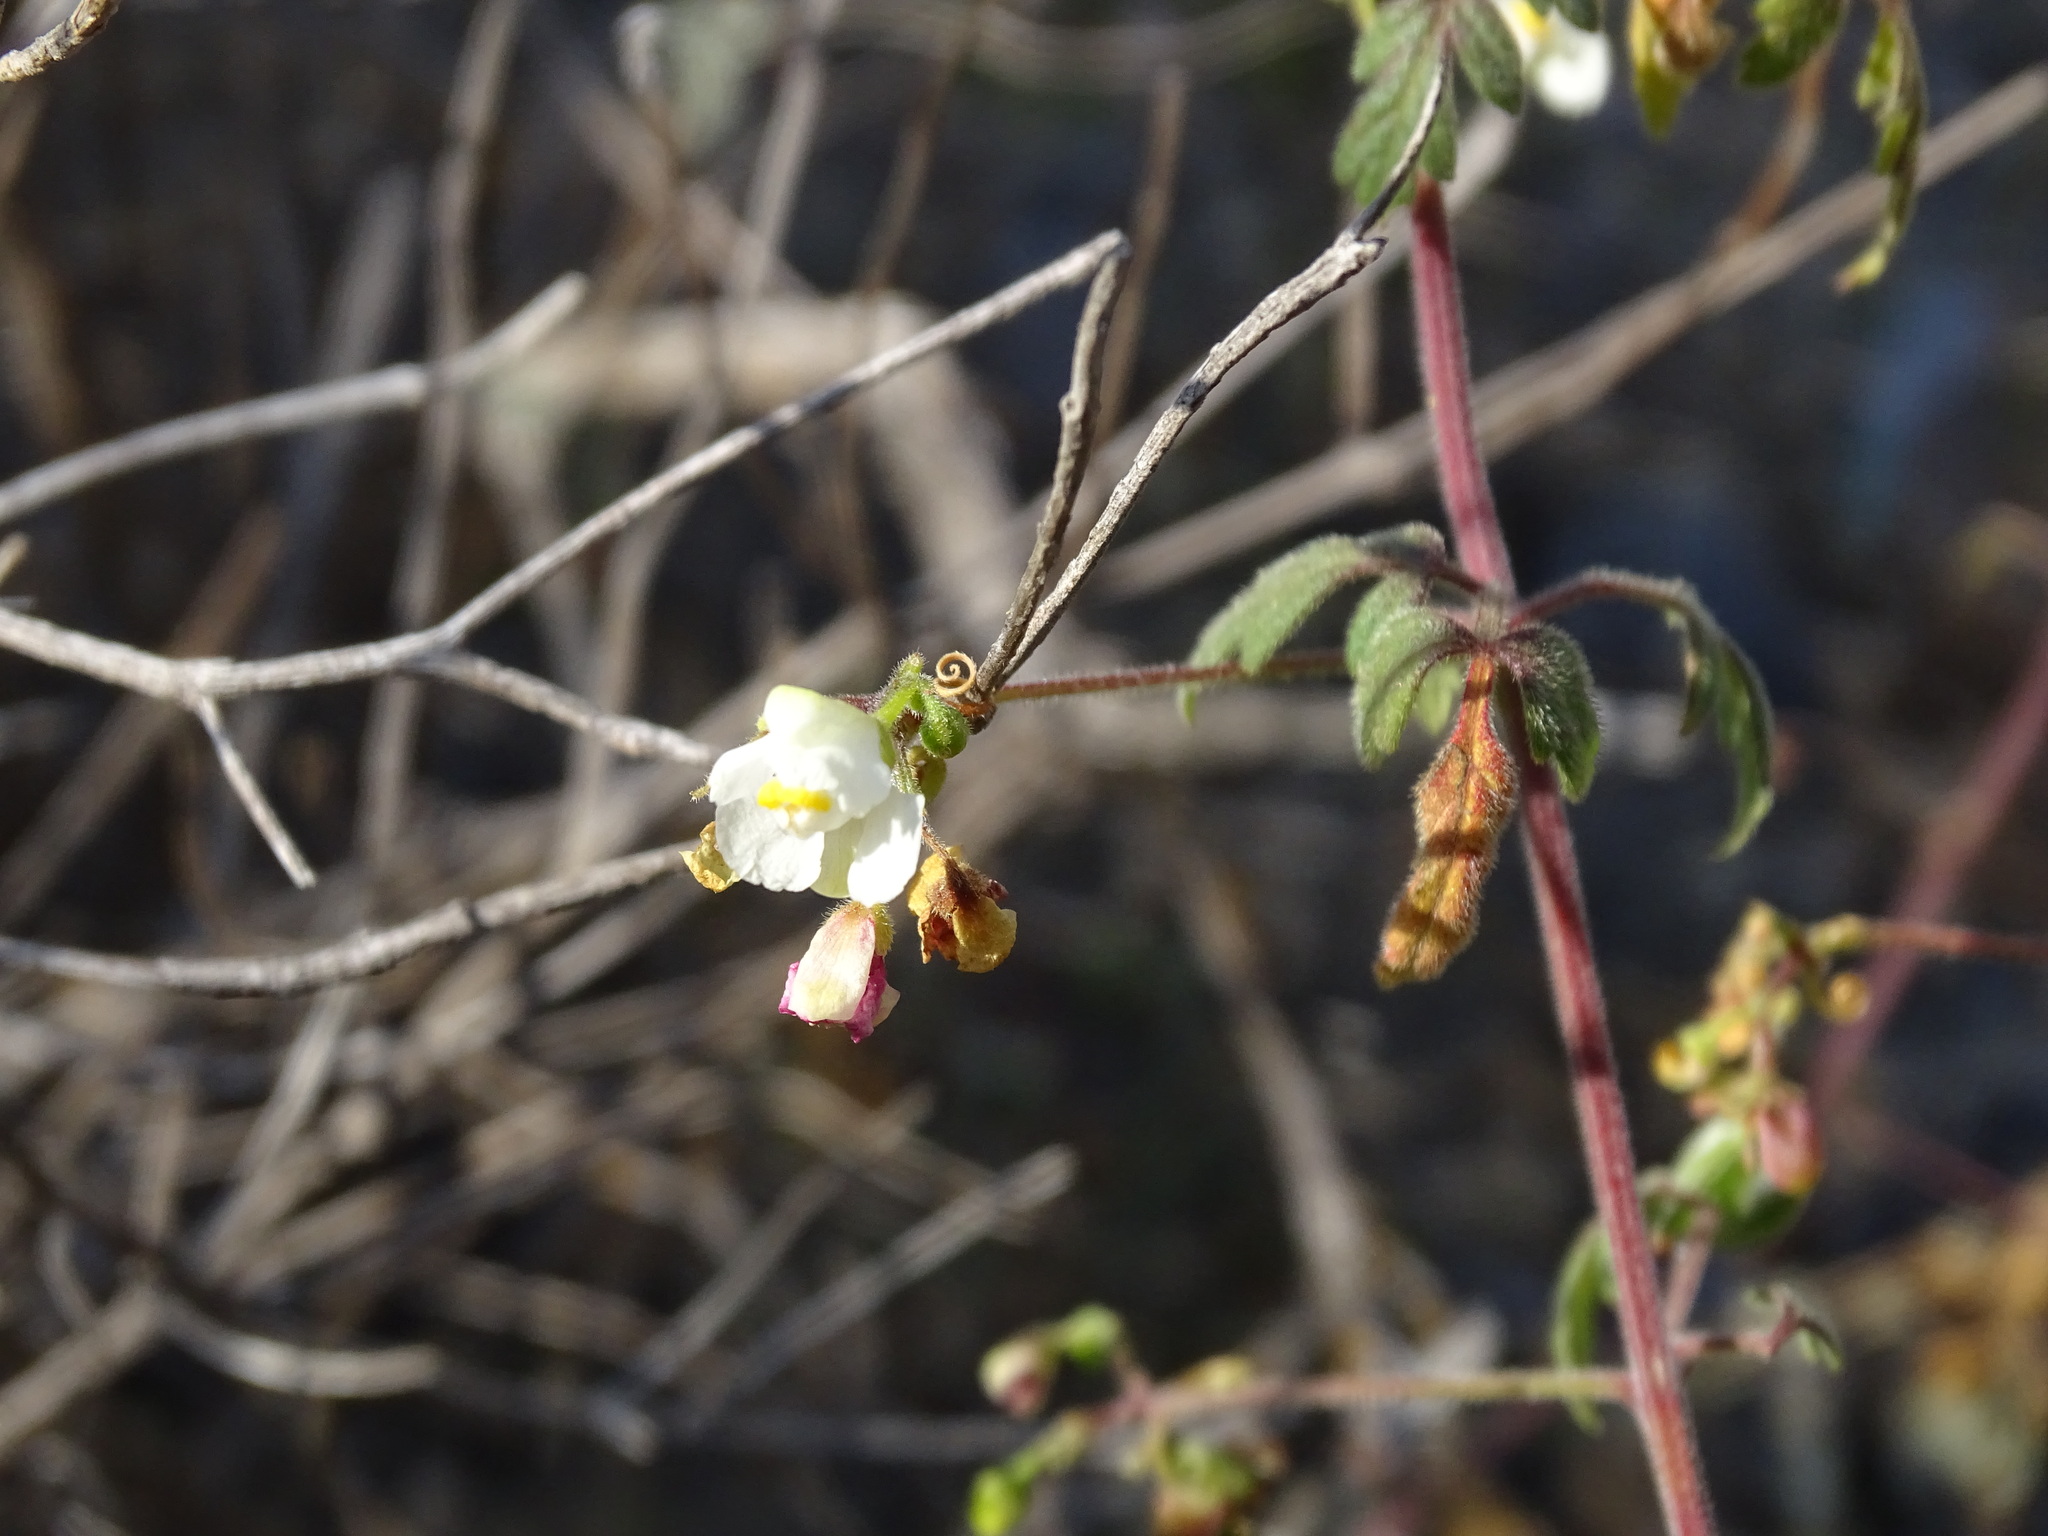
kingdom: Plantae
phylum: Tracheophyta
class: Magnoliopsida
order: Sapindales
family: Sapindaceae
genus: Cardiospermum
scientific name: Cardiospermum halicacabum
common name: Balloon vine
